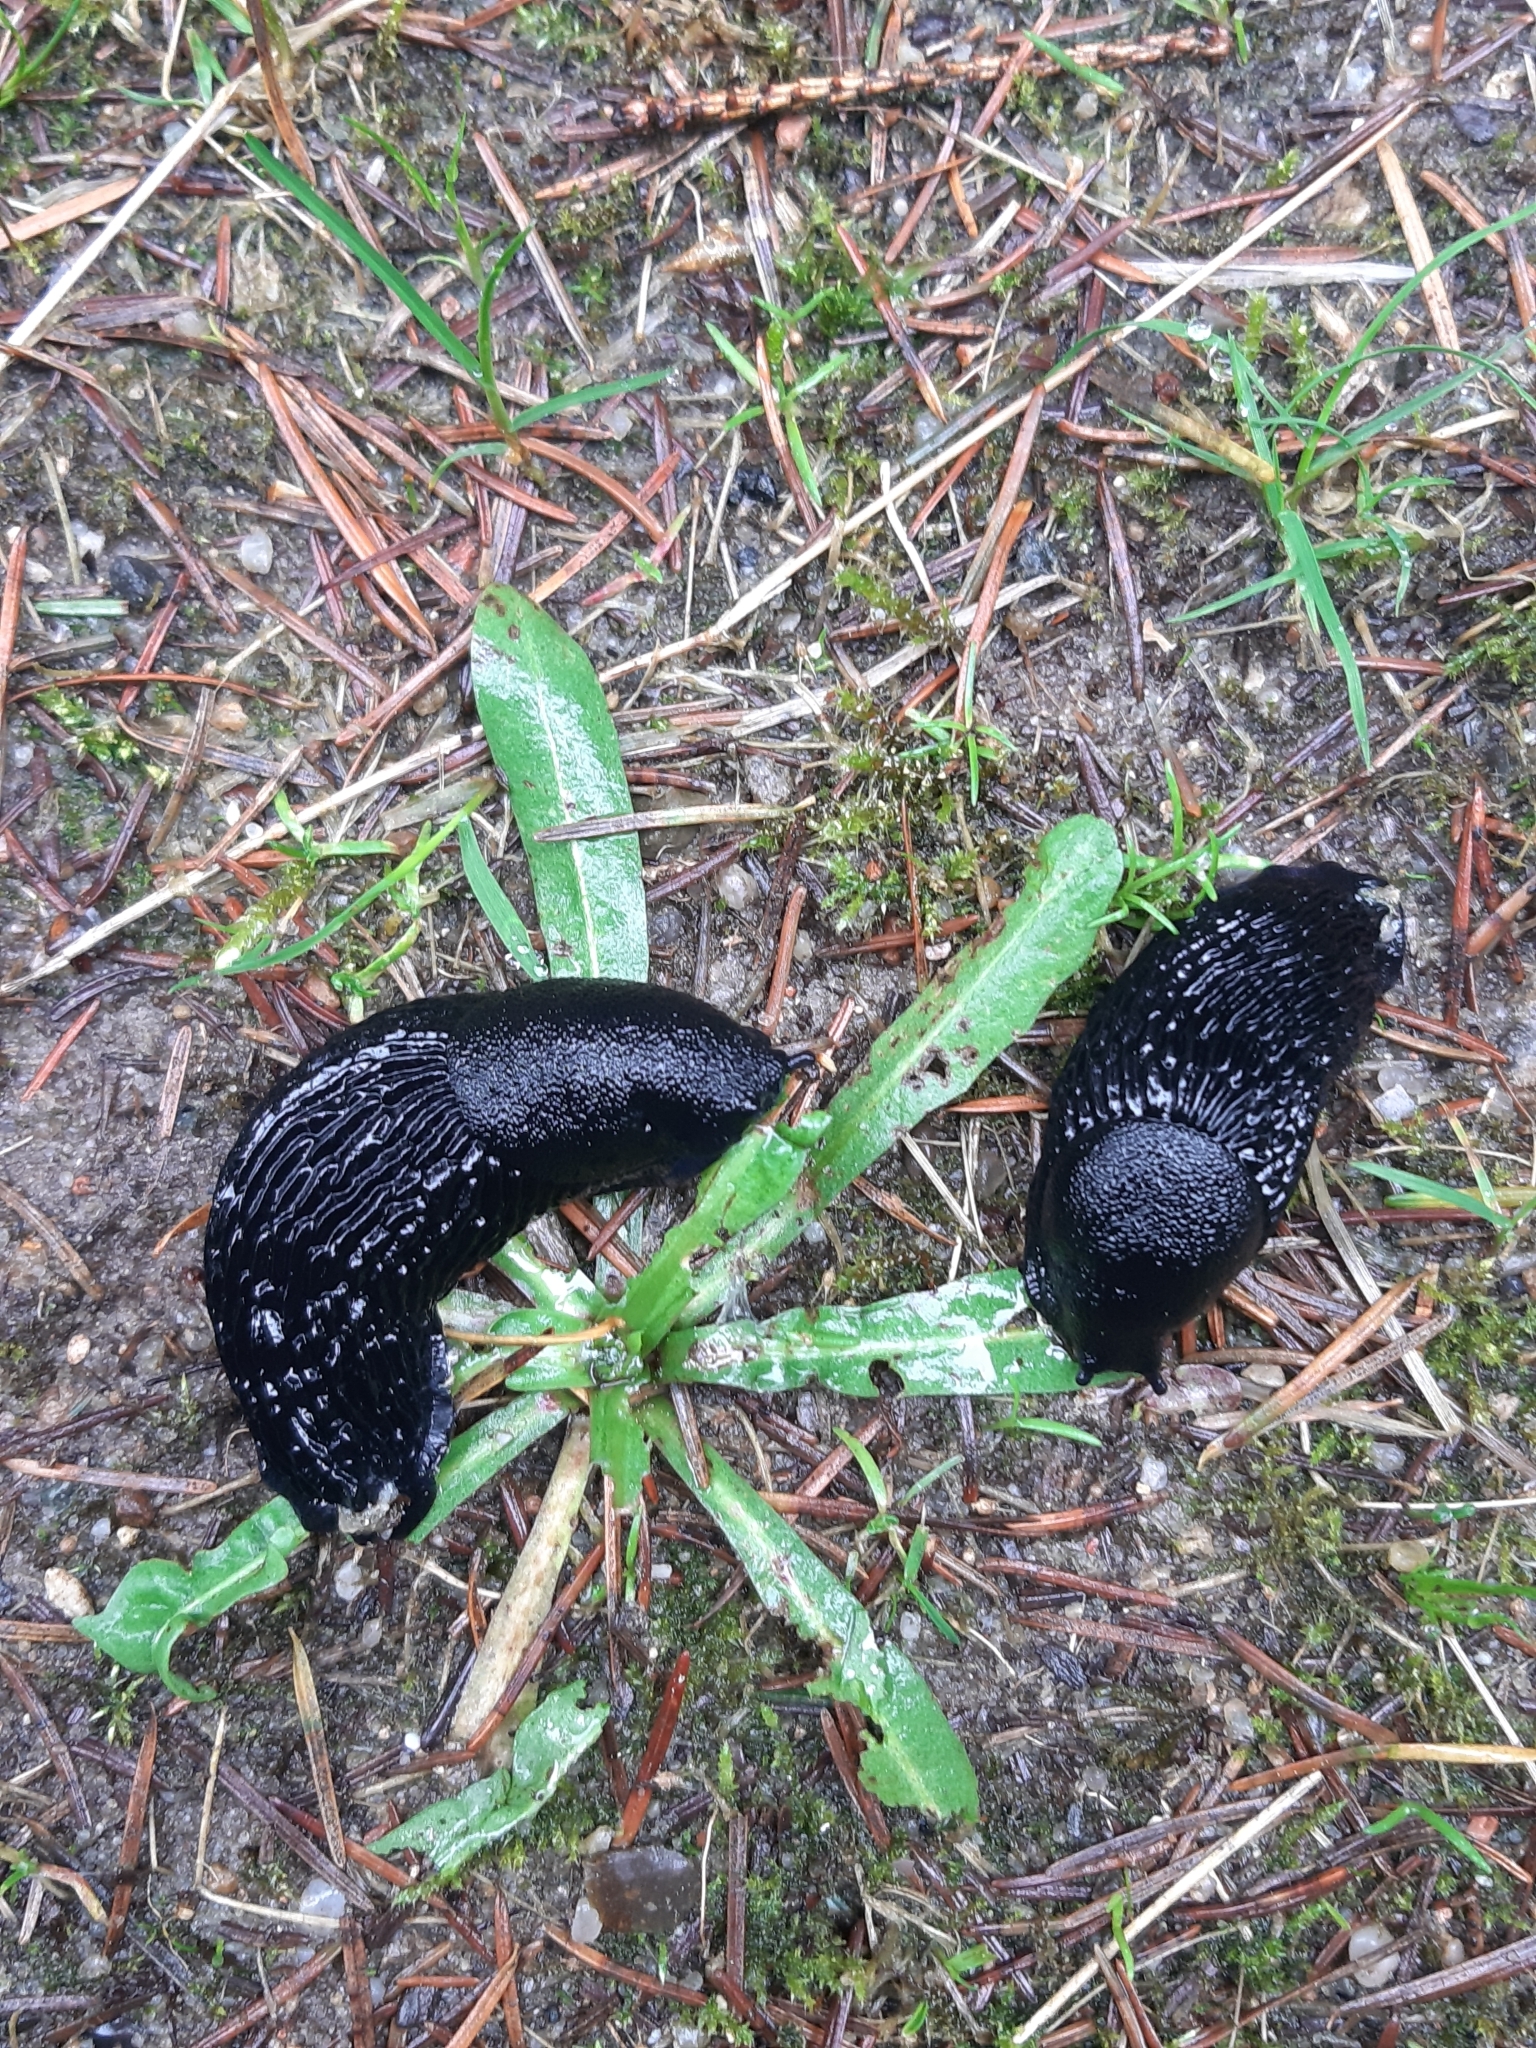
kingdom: Animalia
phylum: Mollusca
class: Gastropoda
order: Stylommatophora
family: Arionidae
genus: Arion
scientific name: Arion ater
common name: Black arion
